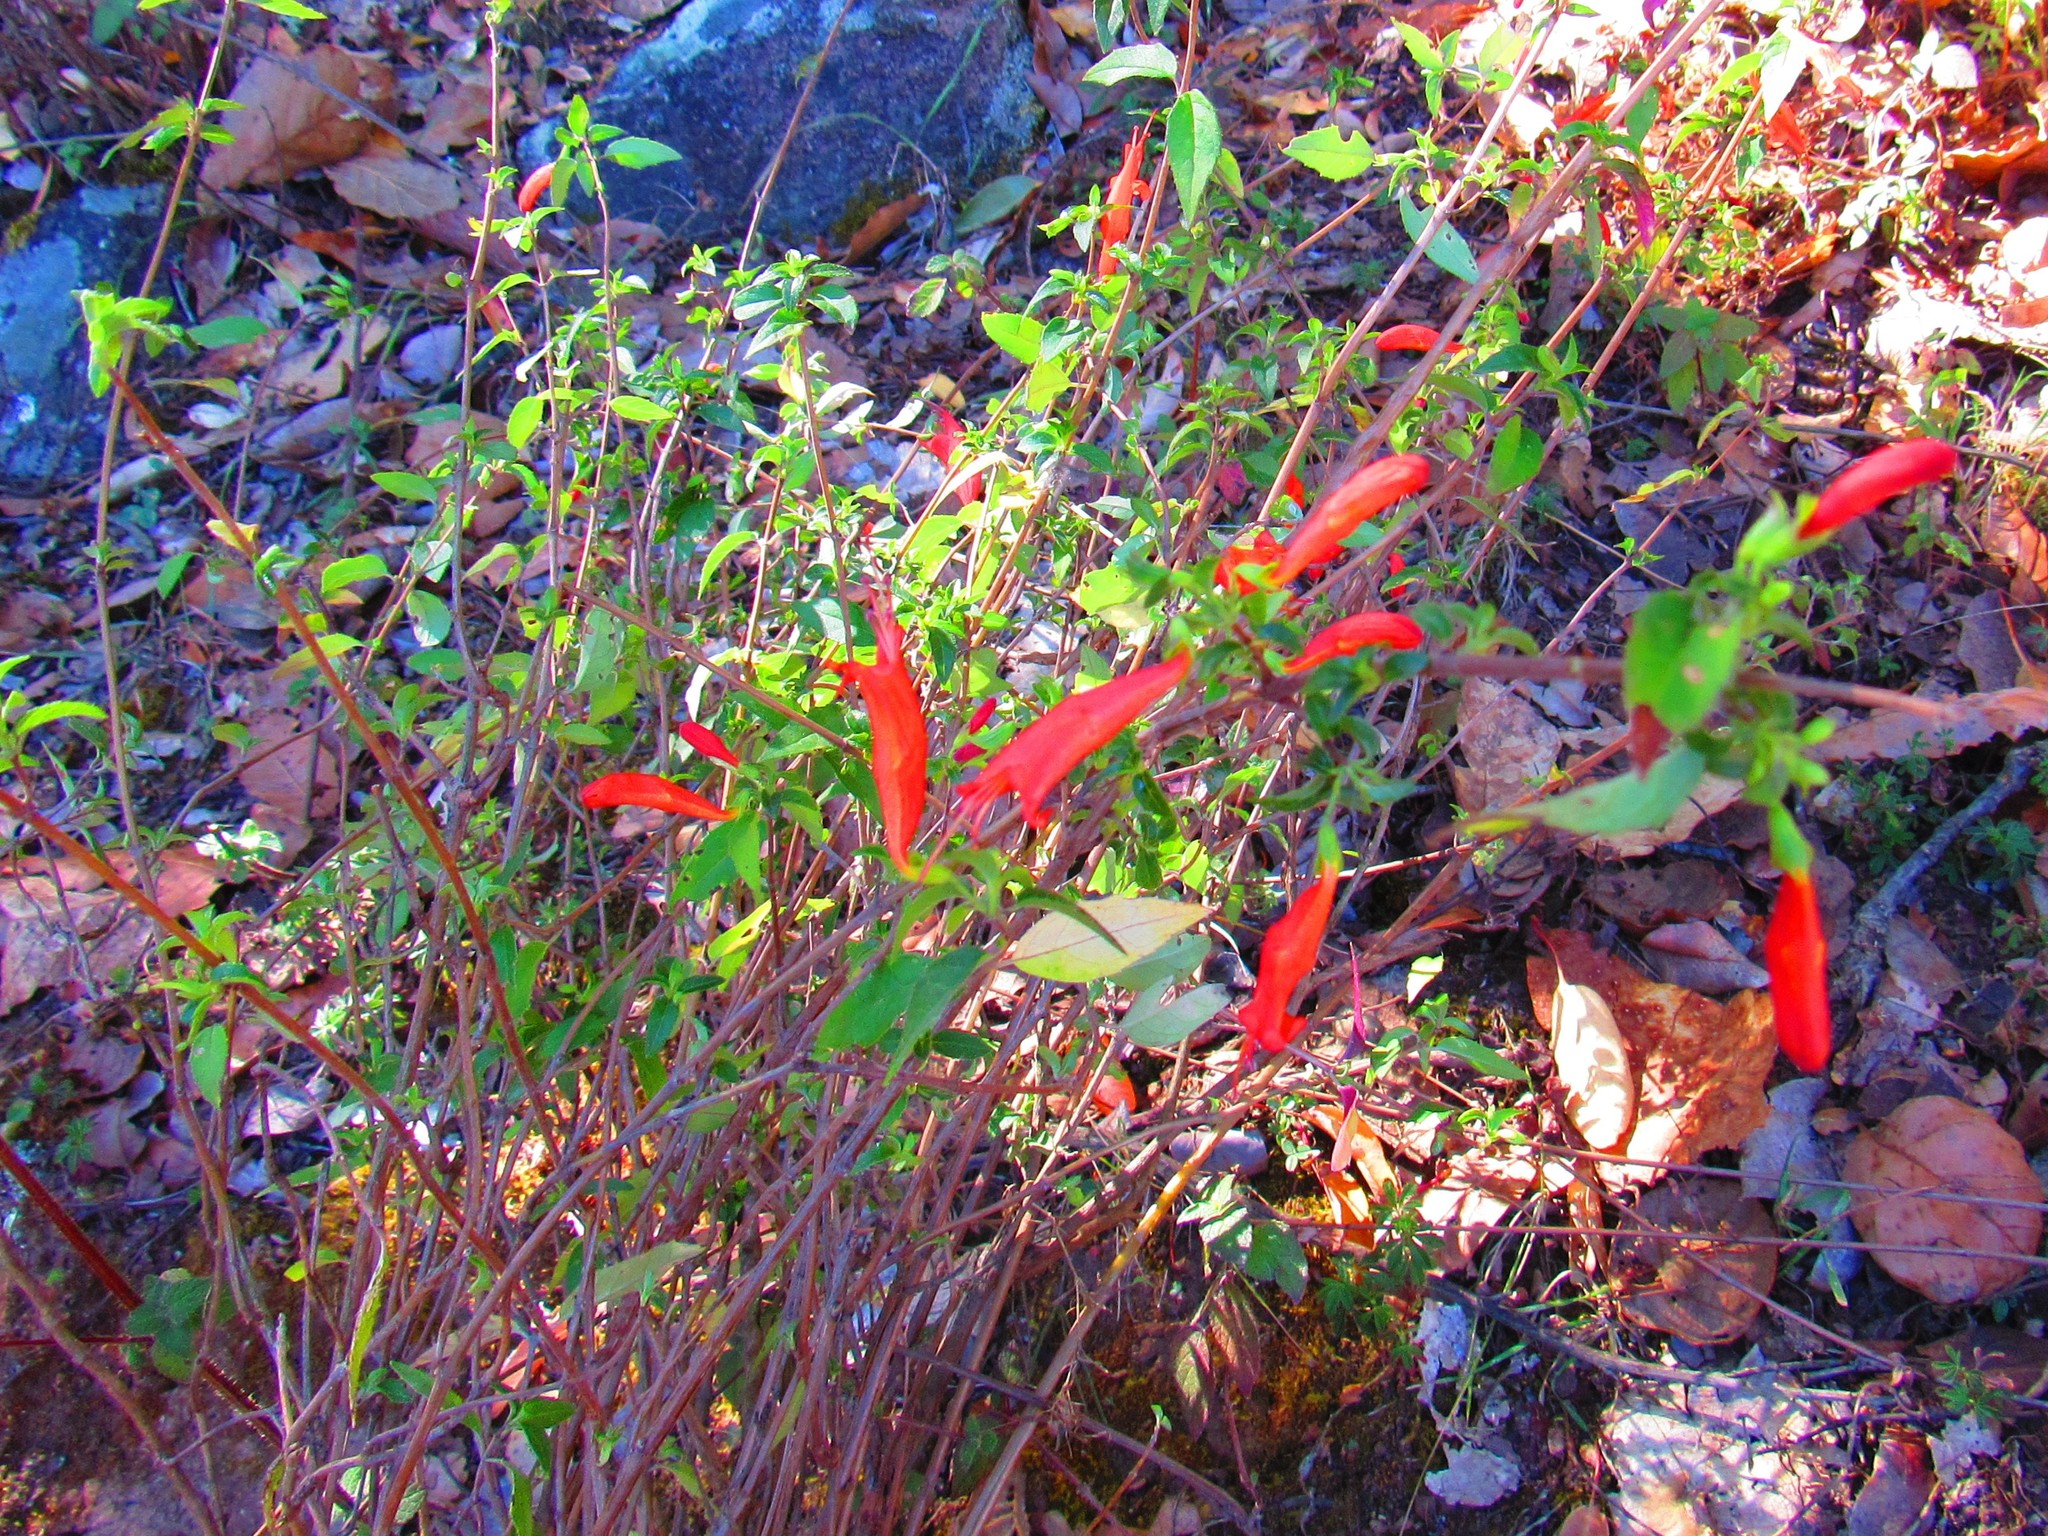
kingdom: Plantae
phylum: Tracheophyta
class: Magnoliopsida
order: Lamiales
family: Lamiaceae
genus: Clinopodium
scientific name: Clinopodium macrostemum
